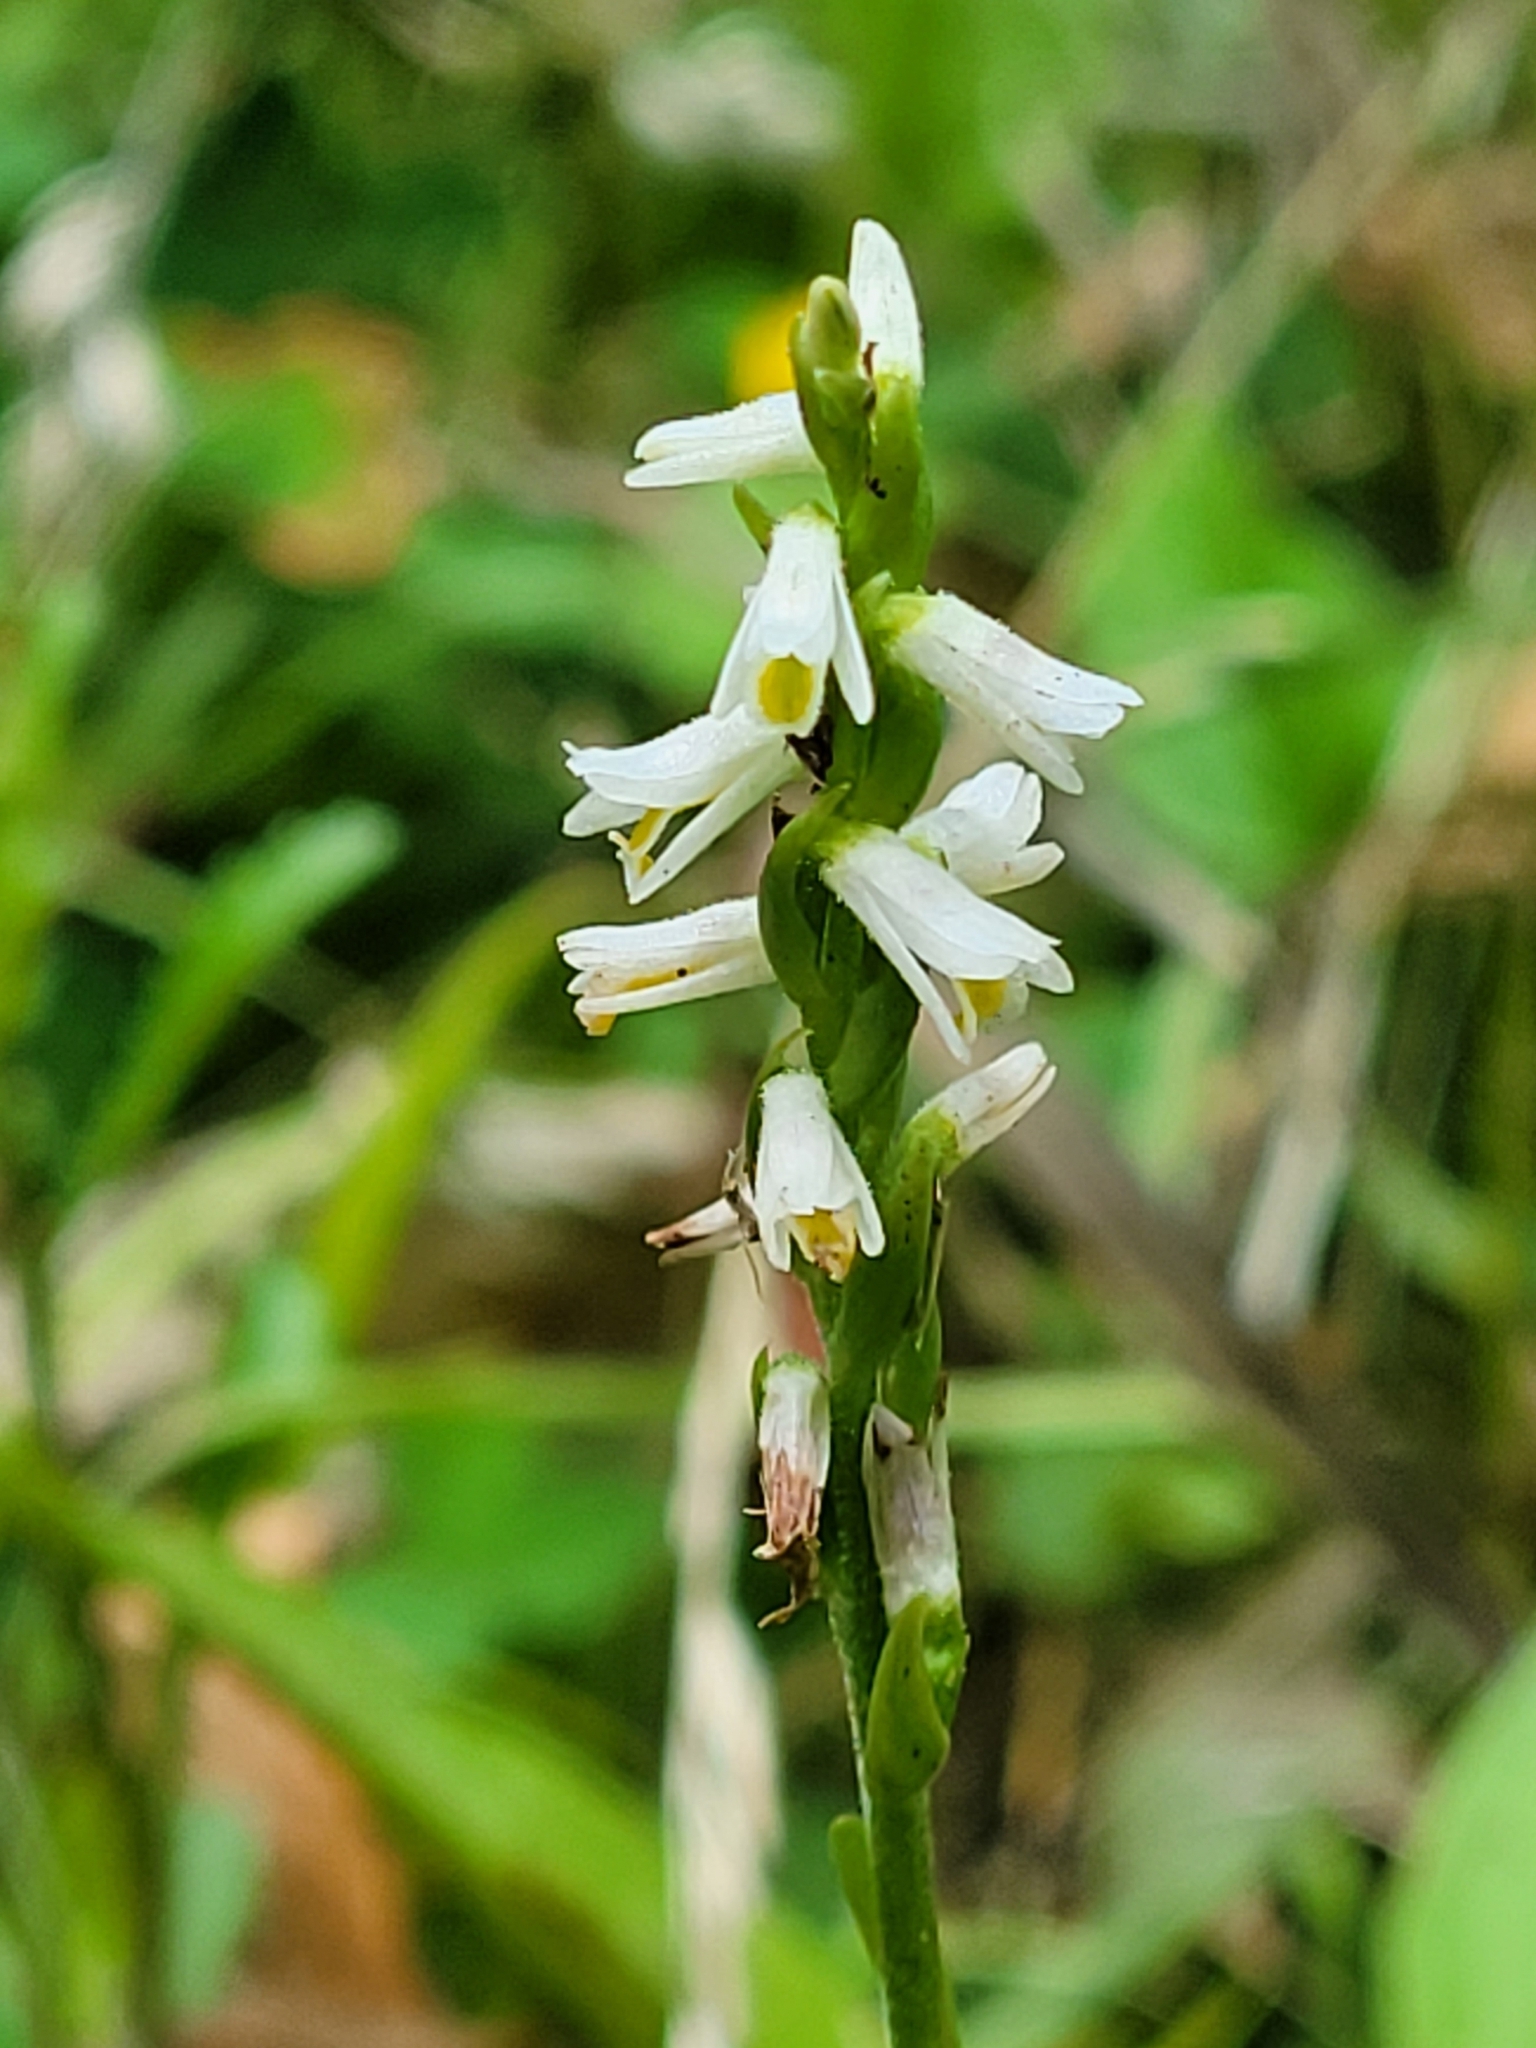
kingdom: Plantae
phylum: Tracheophyta
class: Liliopsida
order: Asparagales
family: Orchidaceae
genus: Spiranthes
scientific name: Spiranthes lucida
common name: Broad-leaved ladies'-tresses
